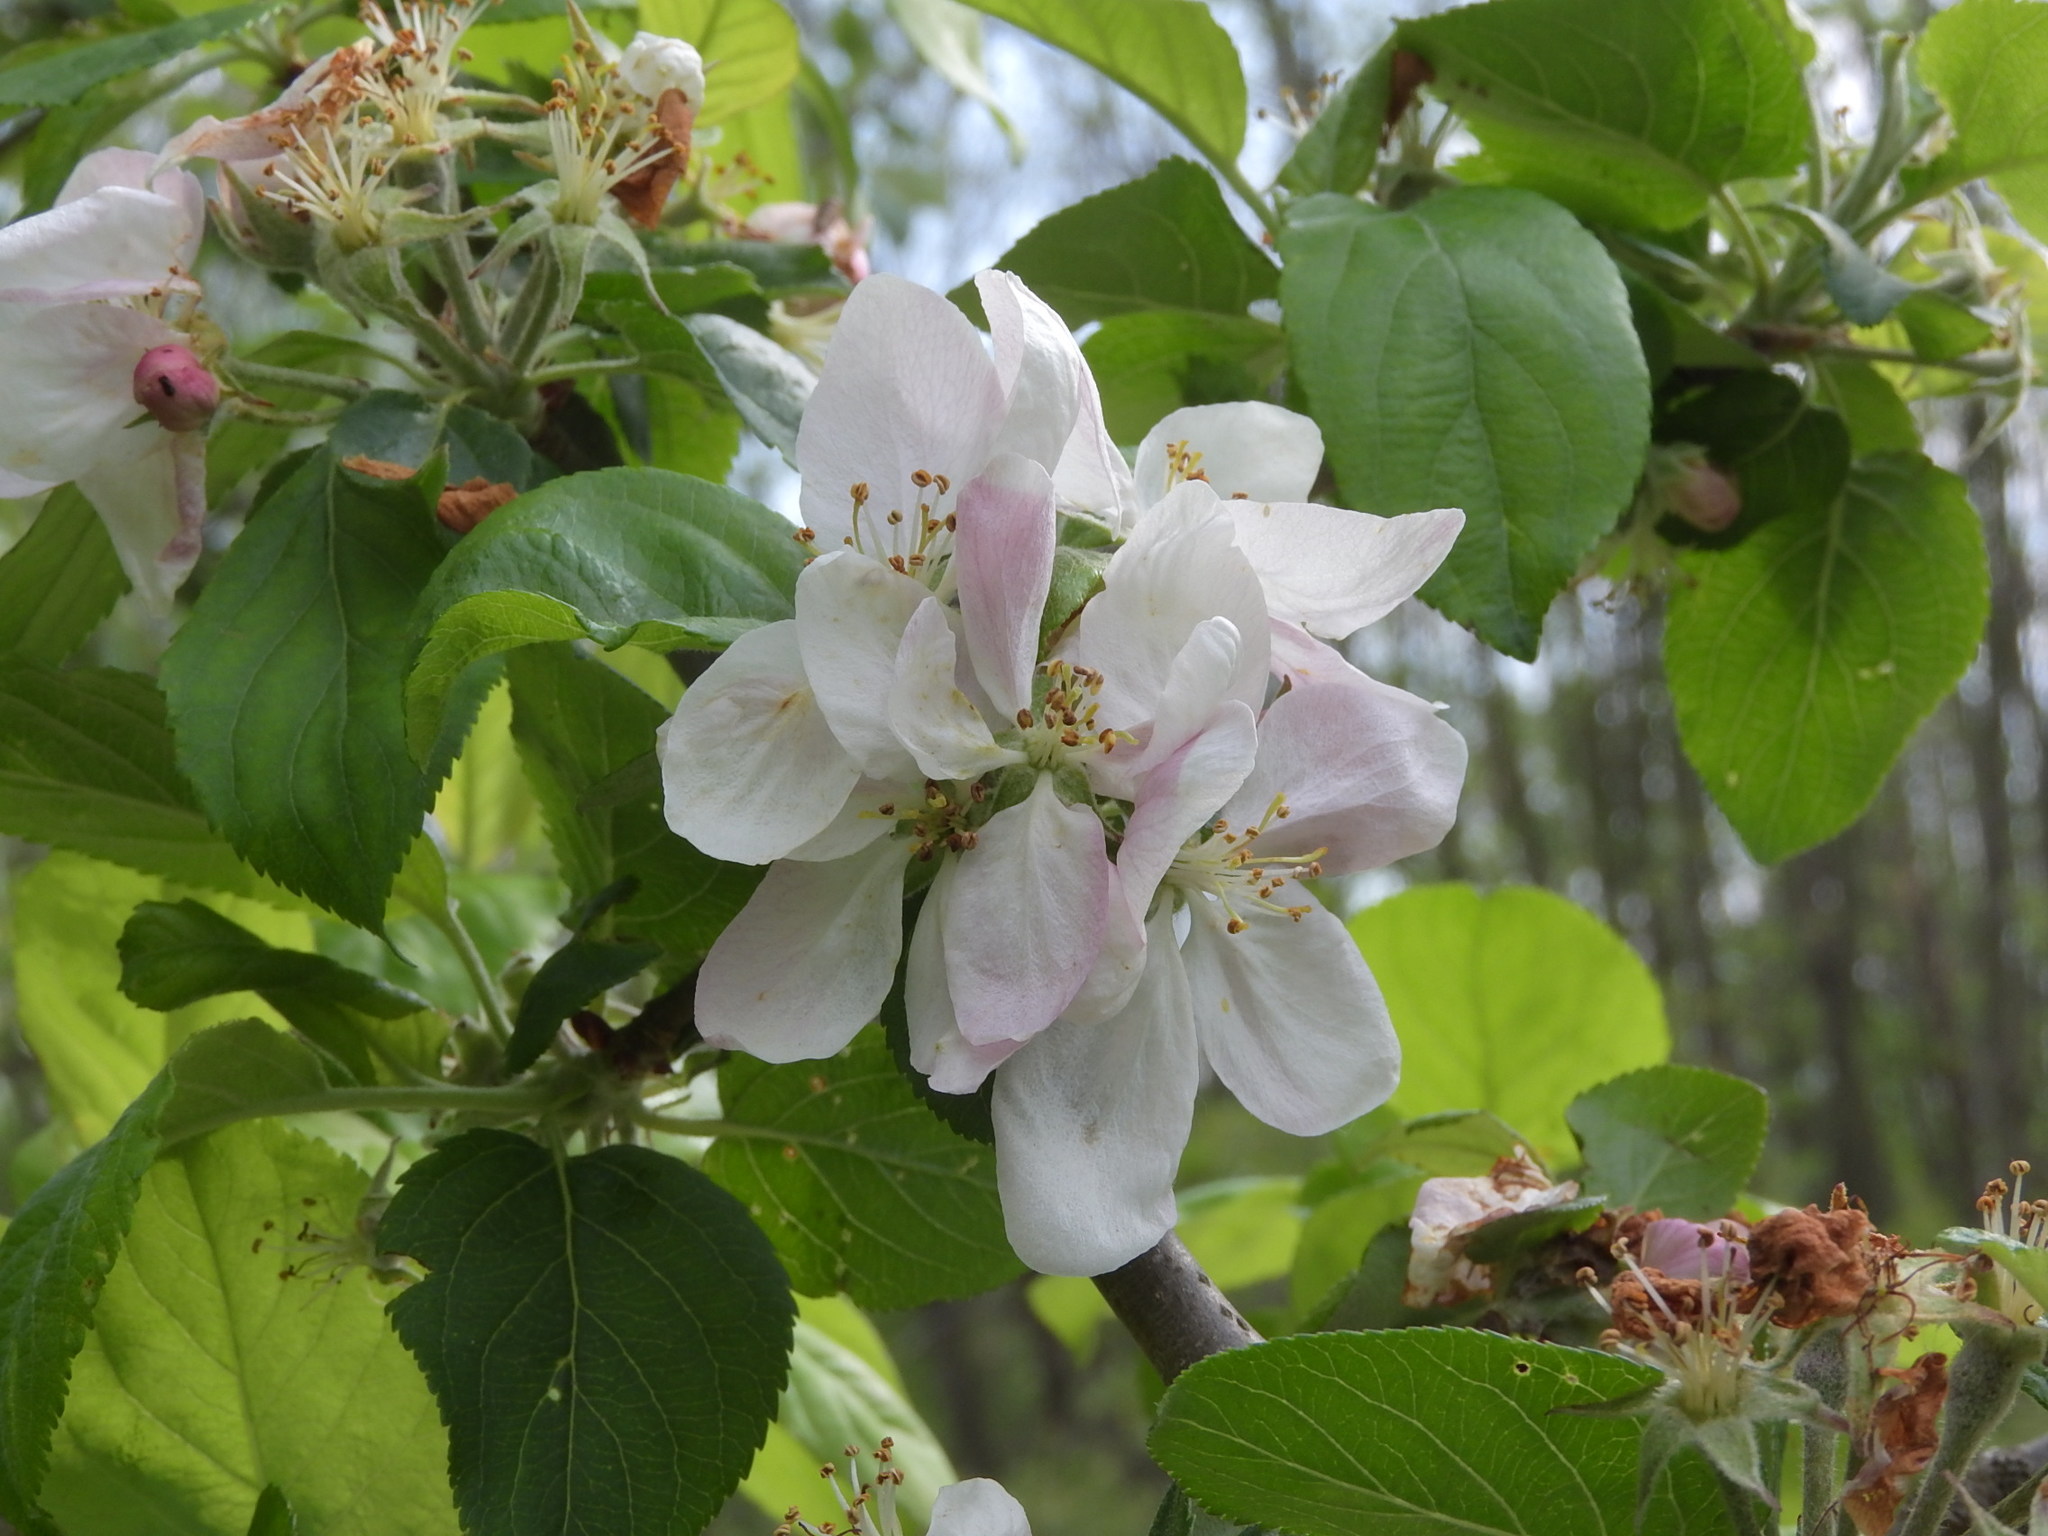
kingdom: Plantae
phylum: Tracheophyta
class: Magnoliopsida
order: Rosales
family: Rosaceae
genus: Malus
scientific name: Malus domestica
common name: Apple
